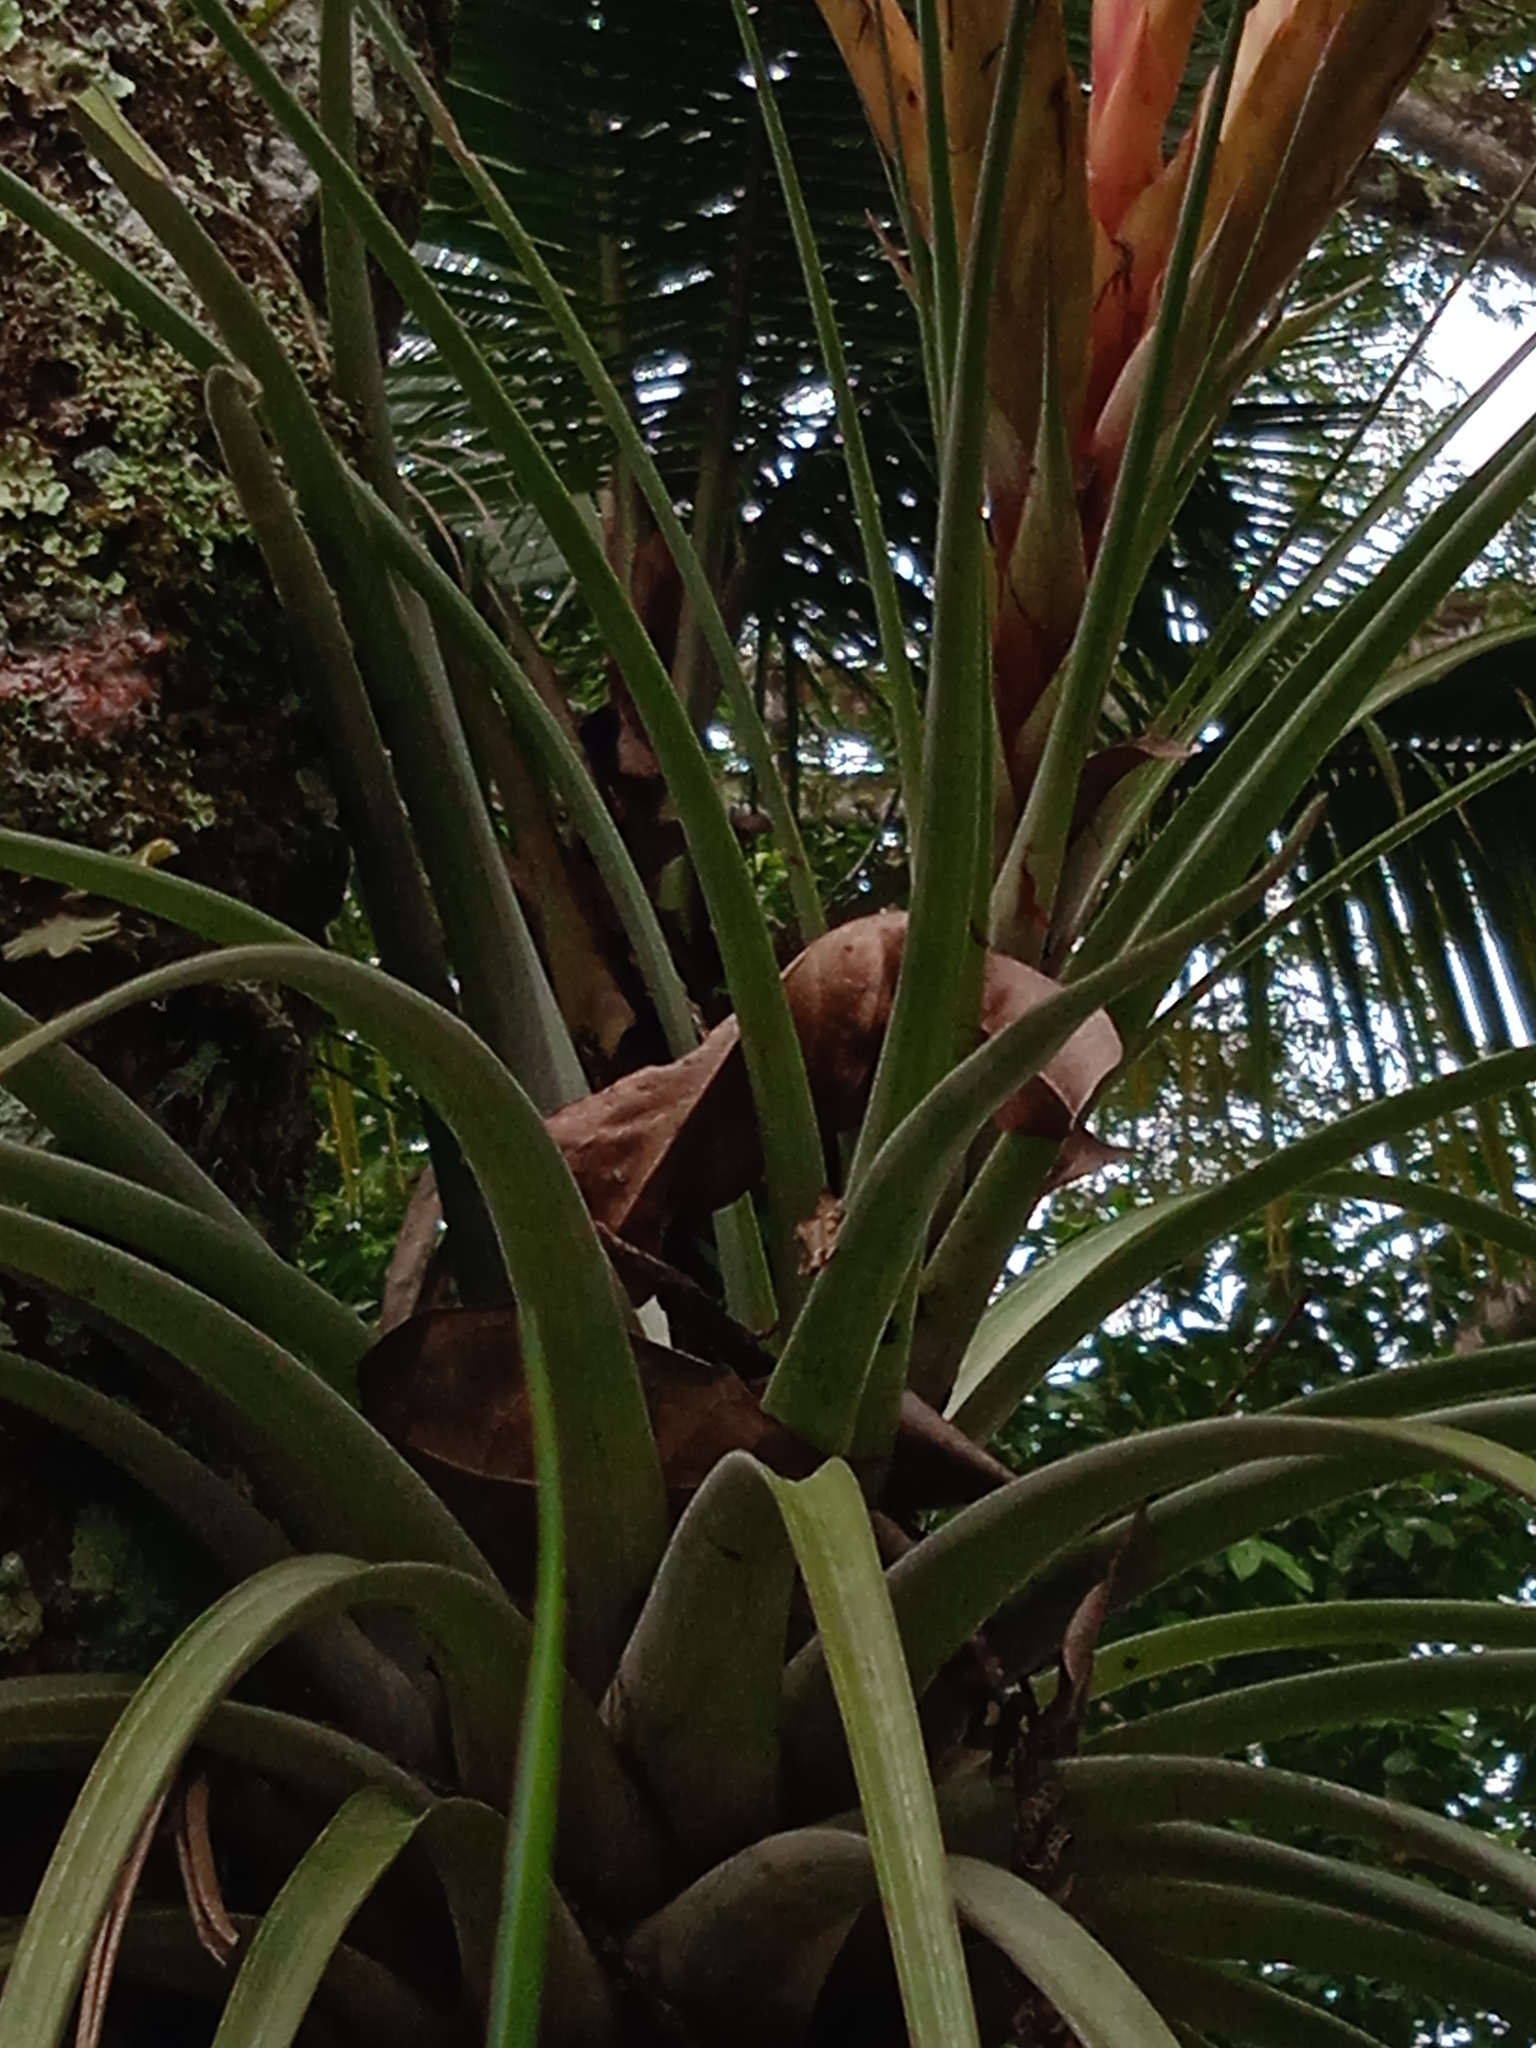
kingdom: Plantae
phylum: Tracheophyta
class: Liliopsida
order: Poales
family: Bromeliaceae
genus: Tillandsia
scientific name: Tillandsia fasciculata
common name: Giant airplant
